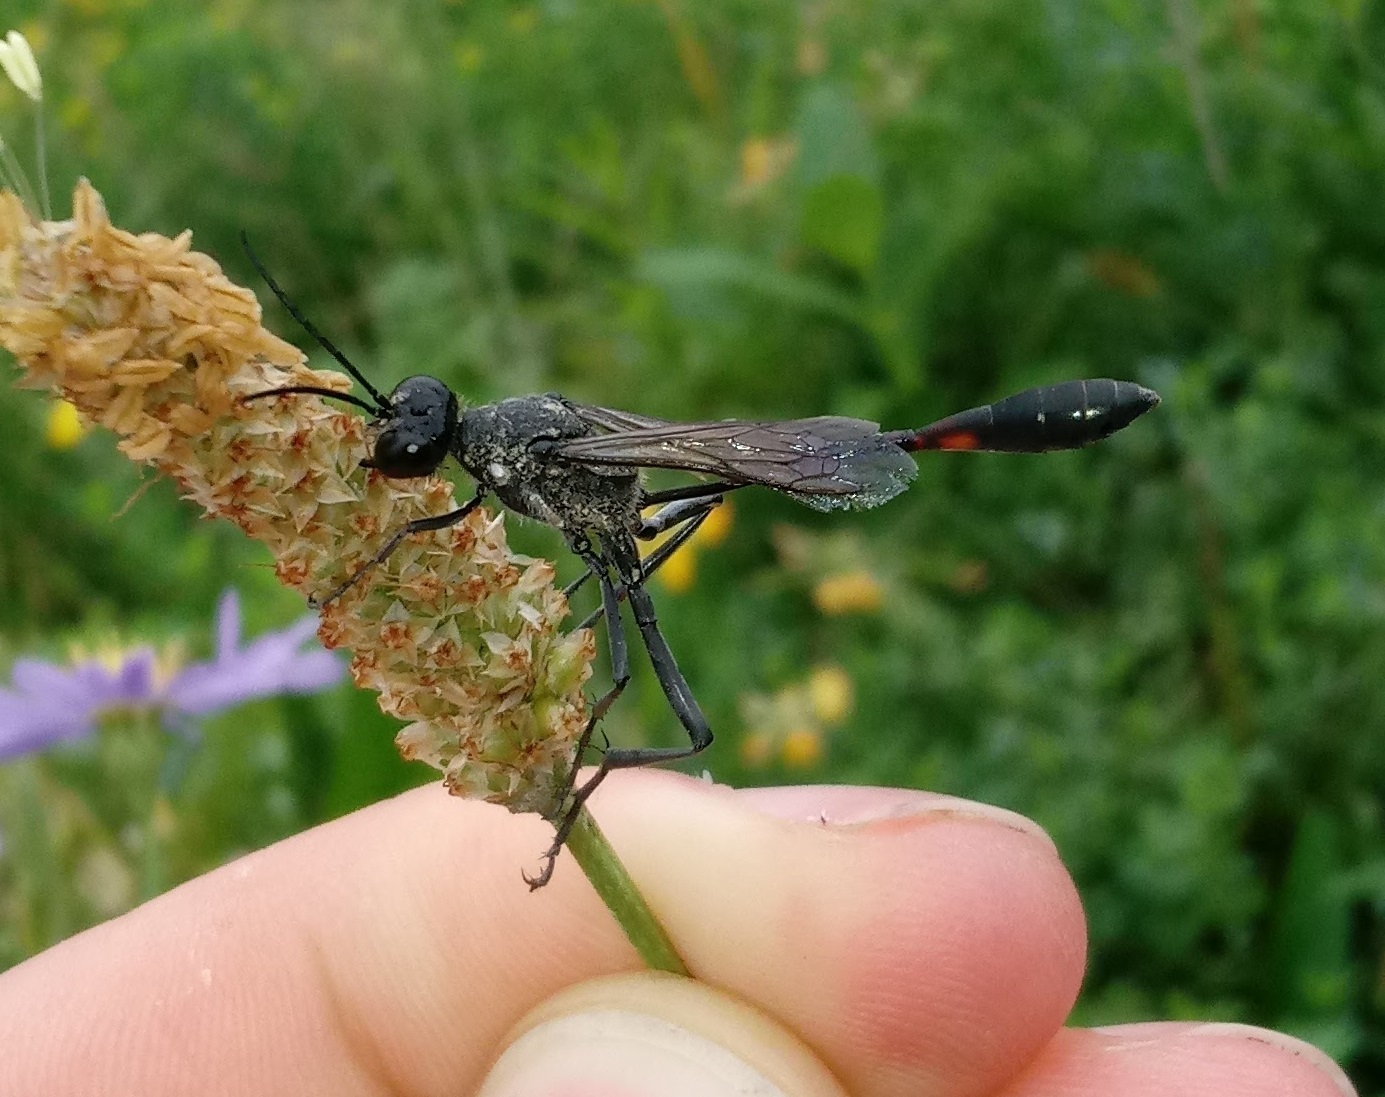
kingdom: Animalia
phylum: Arthropoda
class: Insecta
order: Hymenoptera
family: Sphecidae
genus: Ammophila
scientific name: Ammophila procera
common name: Common thread-waisted wasp
